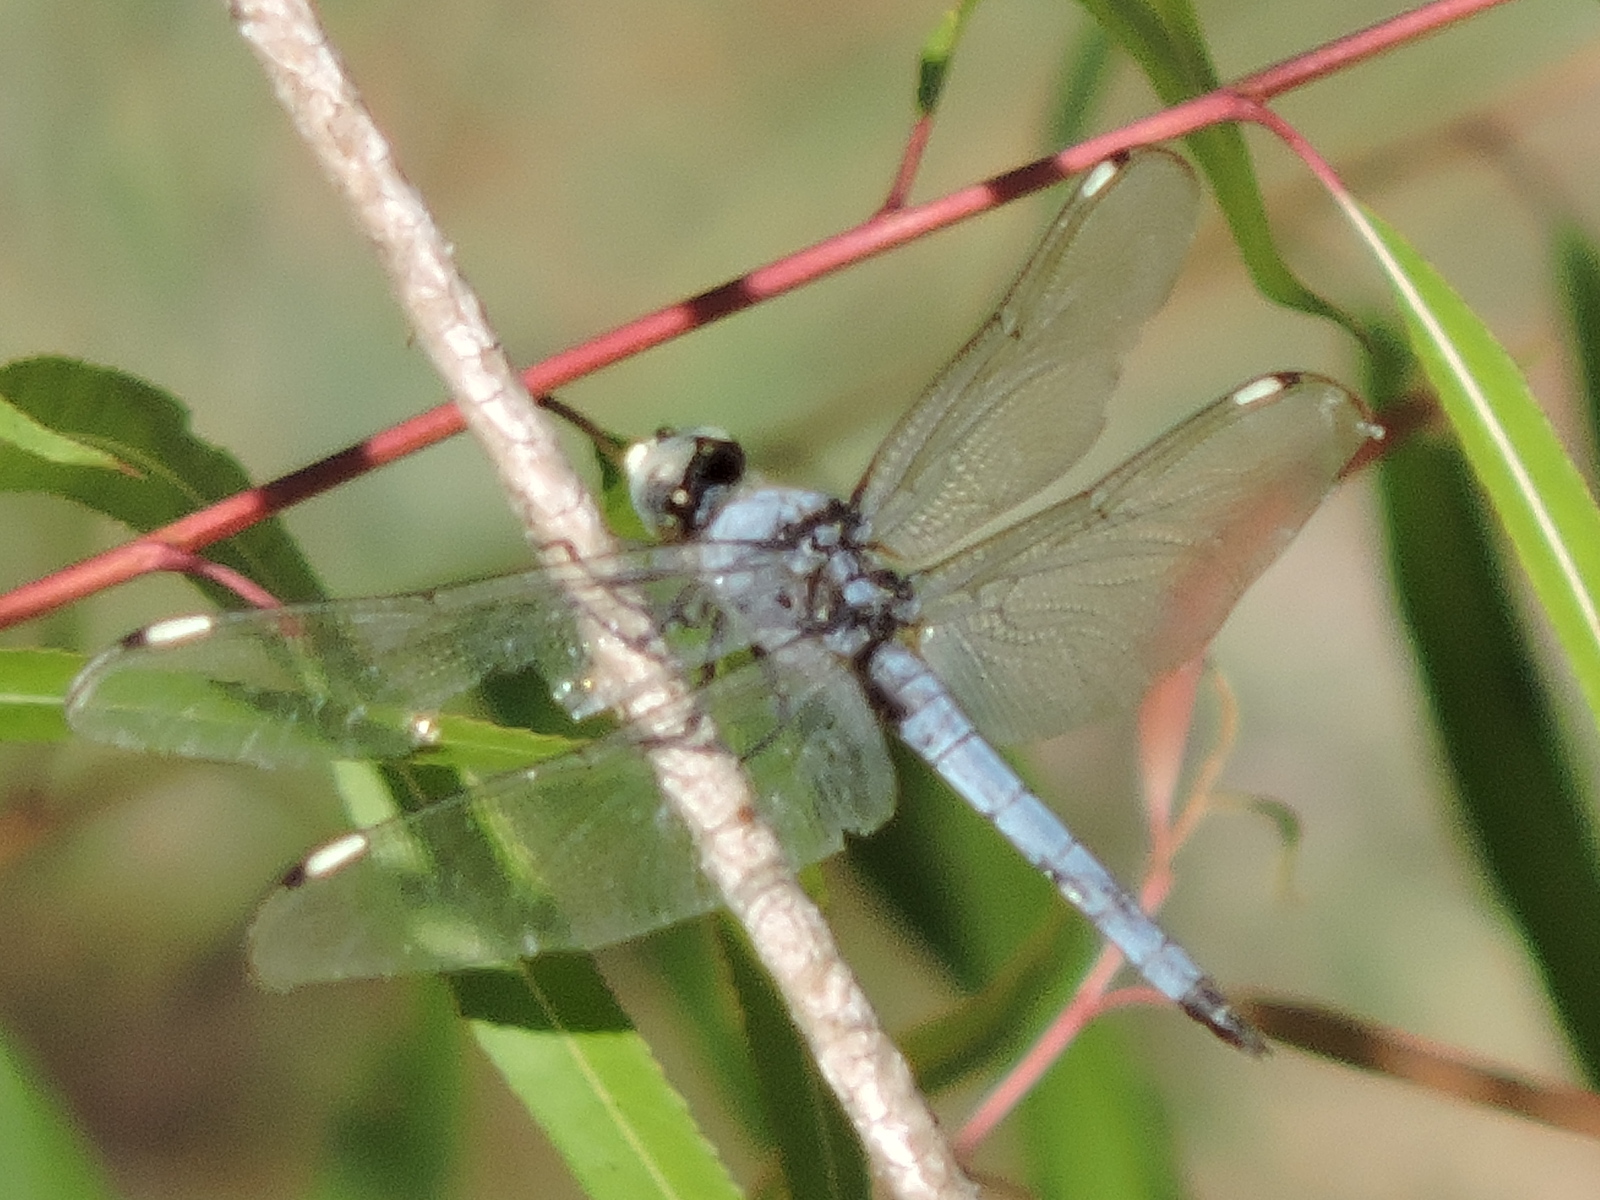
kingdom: Animalia
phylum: Arthropoda
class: Insecta
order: Odonata
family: Libellulidae
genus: Libellula
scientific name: Libellula comanche
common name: Comanche skimmer
